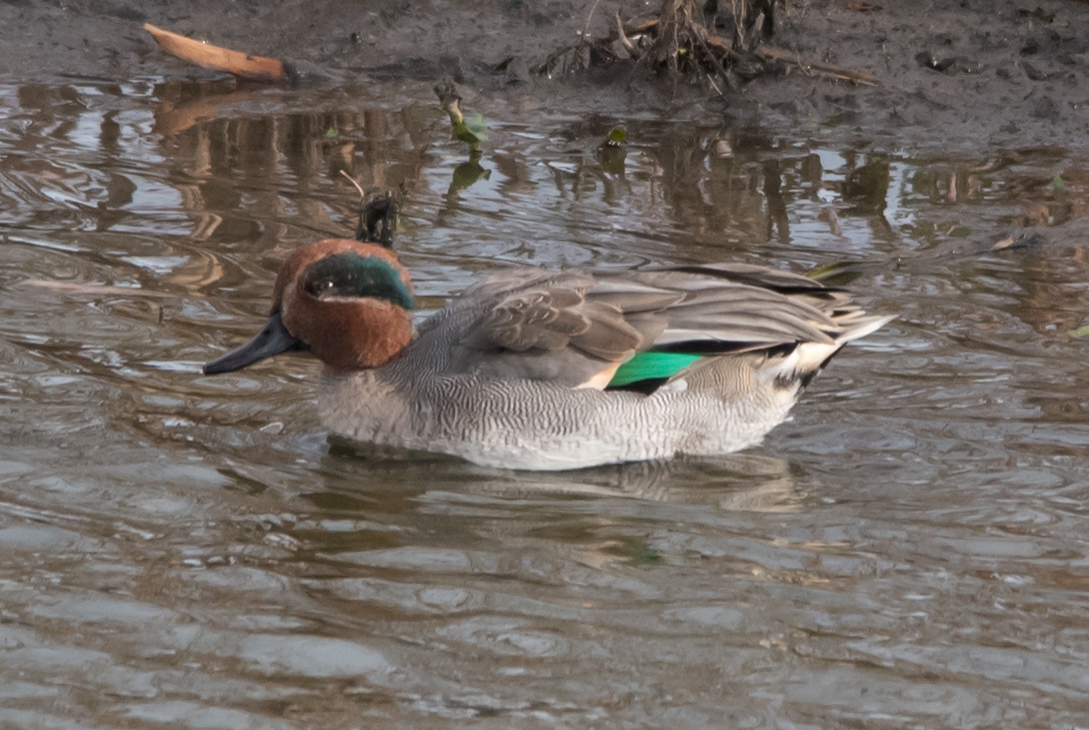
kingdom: Animalia
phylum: Chordata
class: Aves
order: Anseriformes
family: Anatidae
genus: Anas
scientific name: Anas crecca
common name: Eurasian teal
